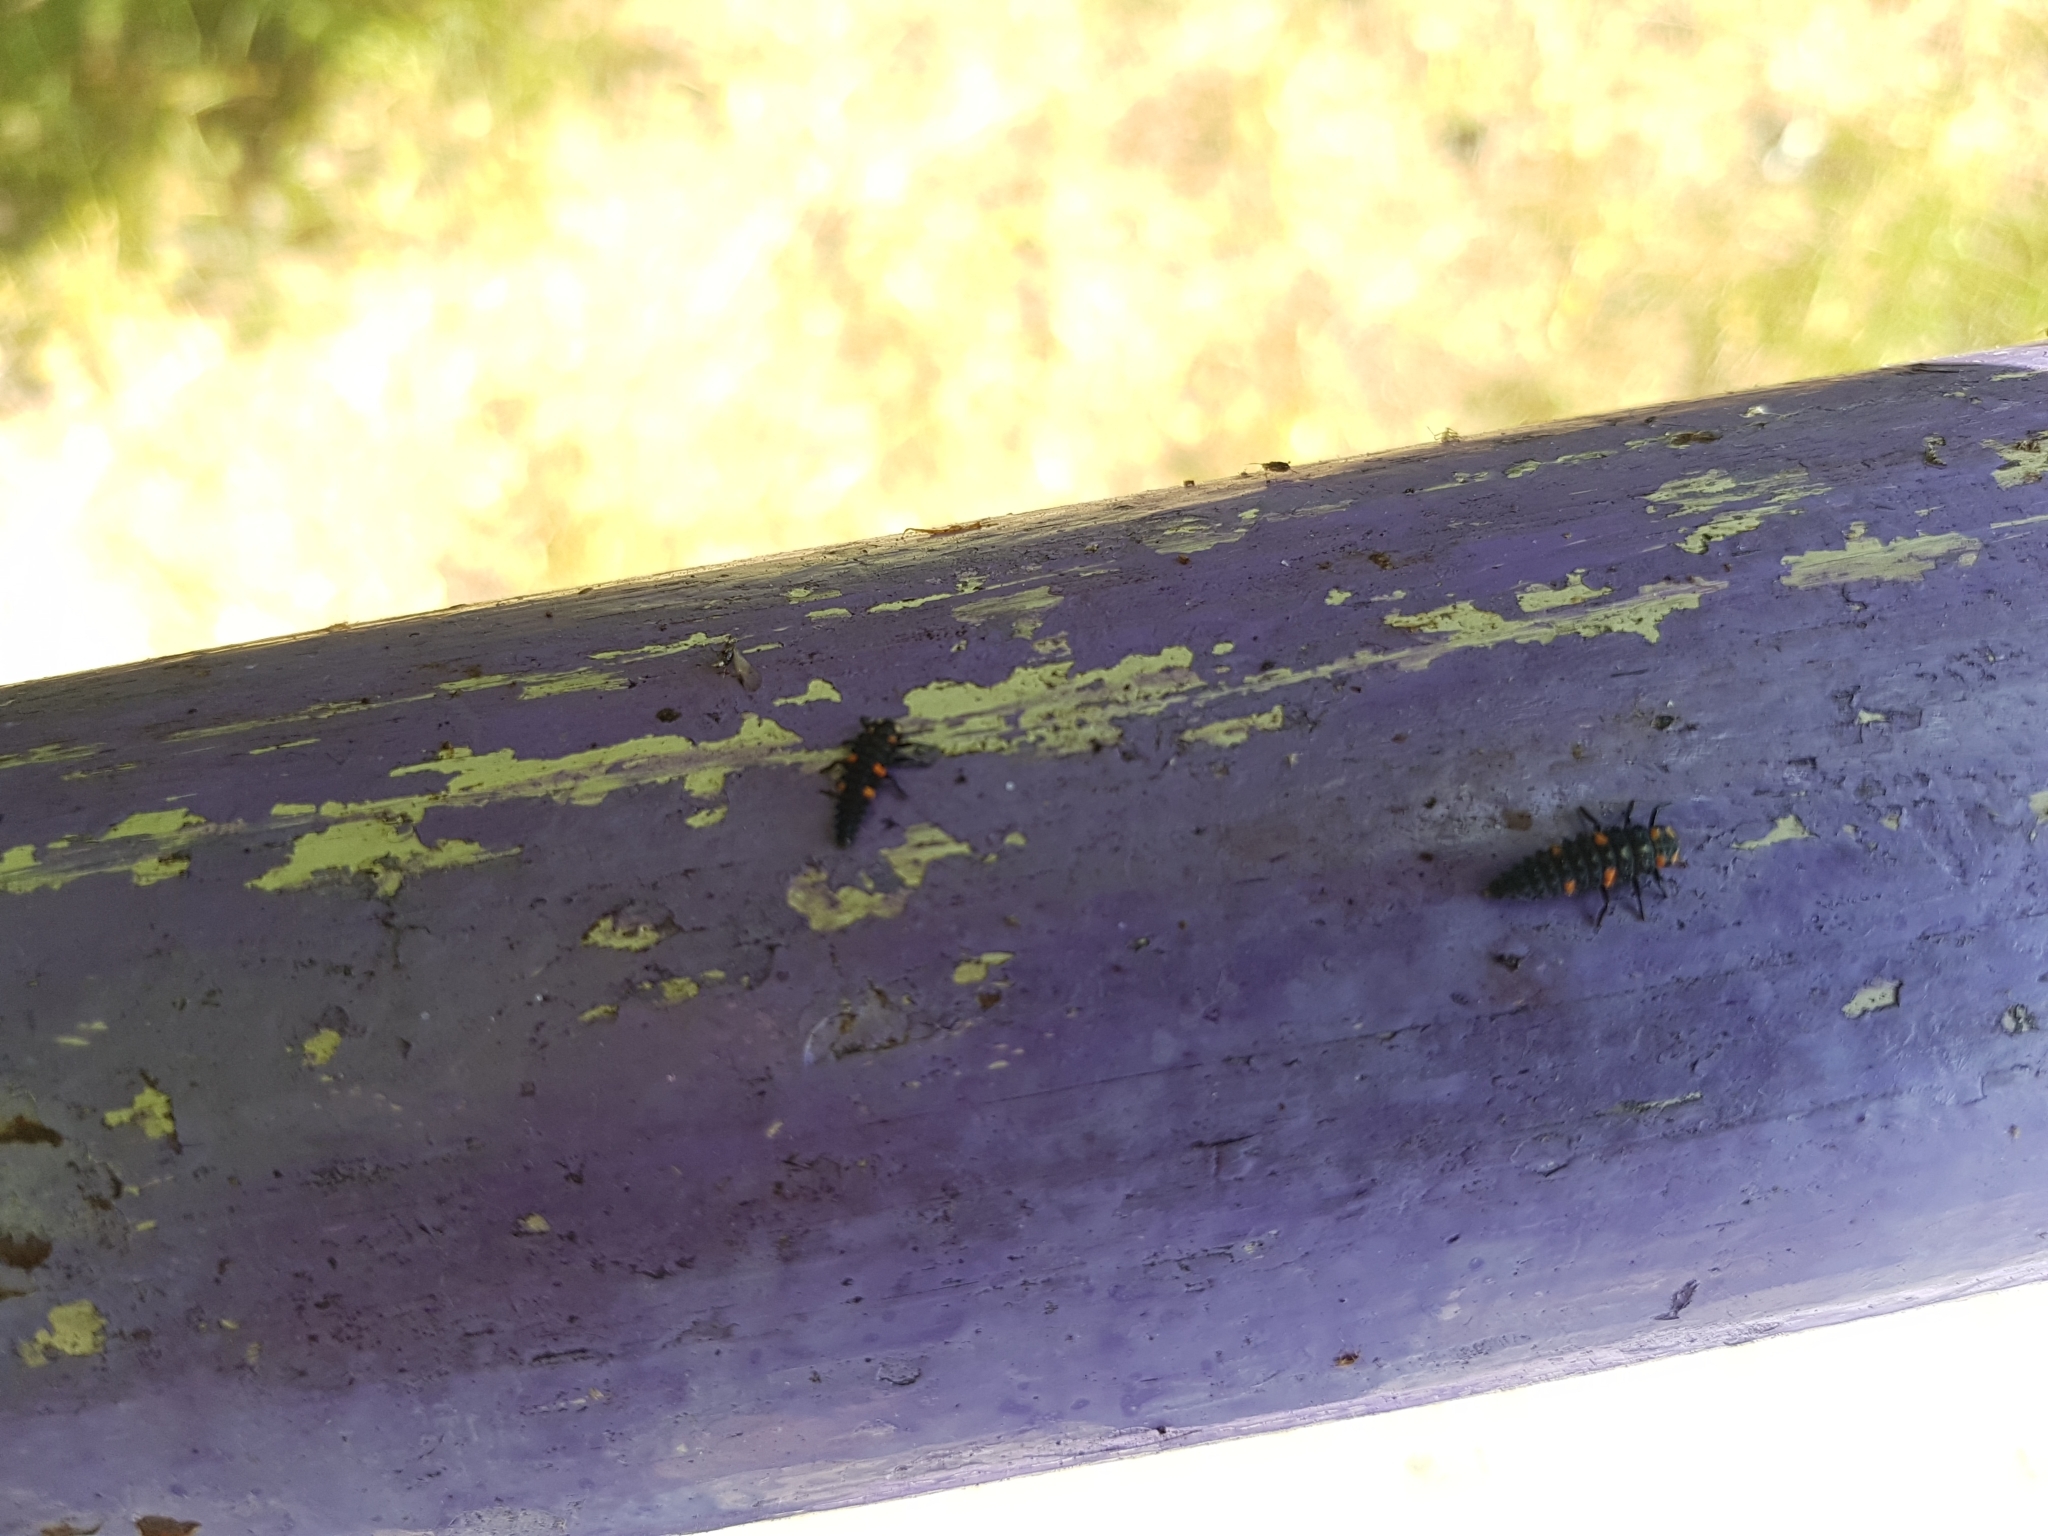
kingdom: Animalia
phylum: Arthropoda
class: Insecta
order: Coleoptera
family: Coccinellidae
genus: Coccinella
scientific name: Coccinella septempunctata
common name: Sevenspotted lady beetle
